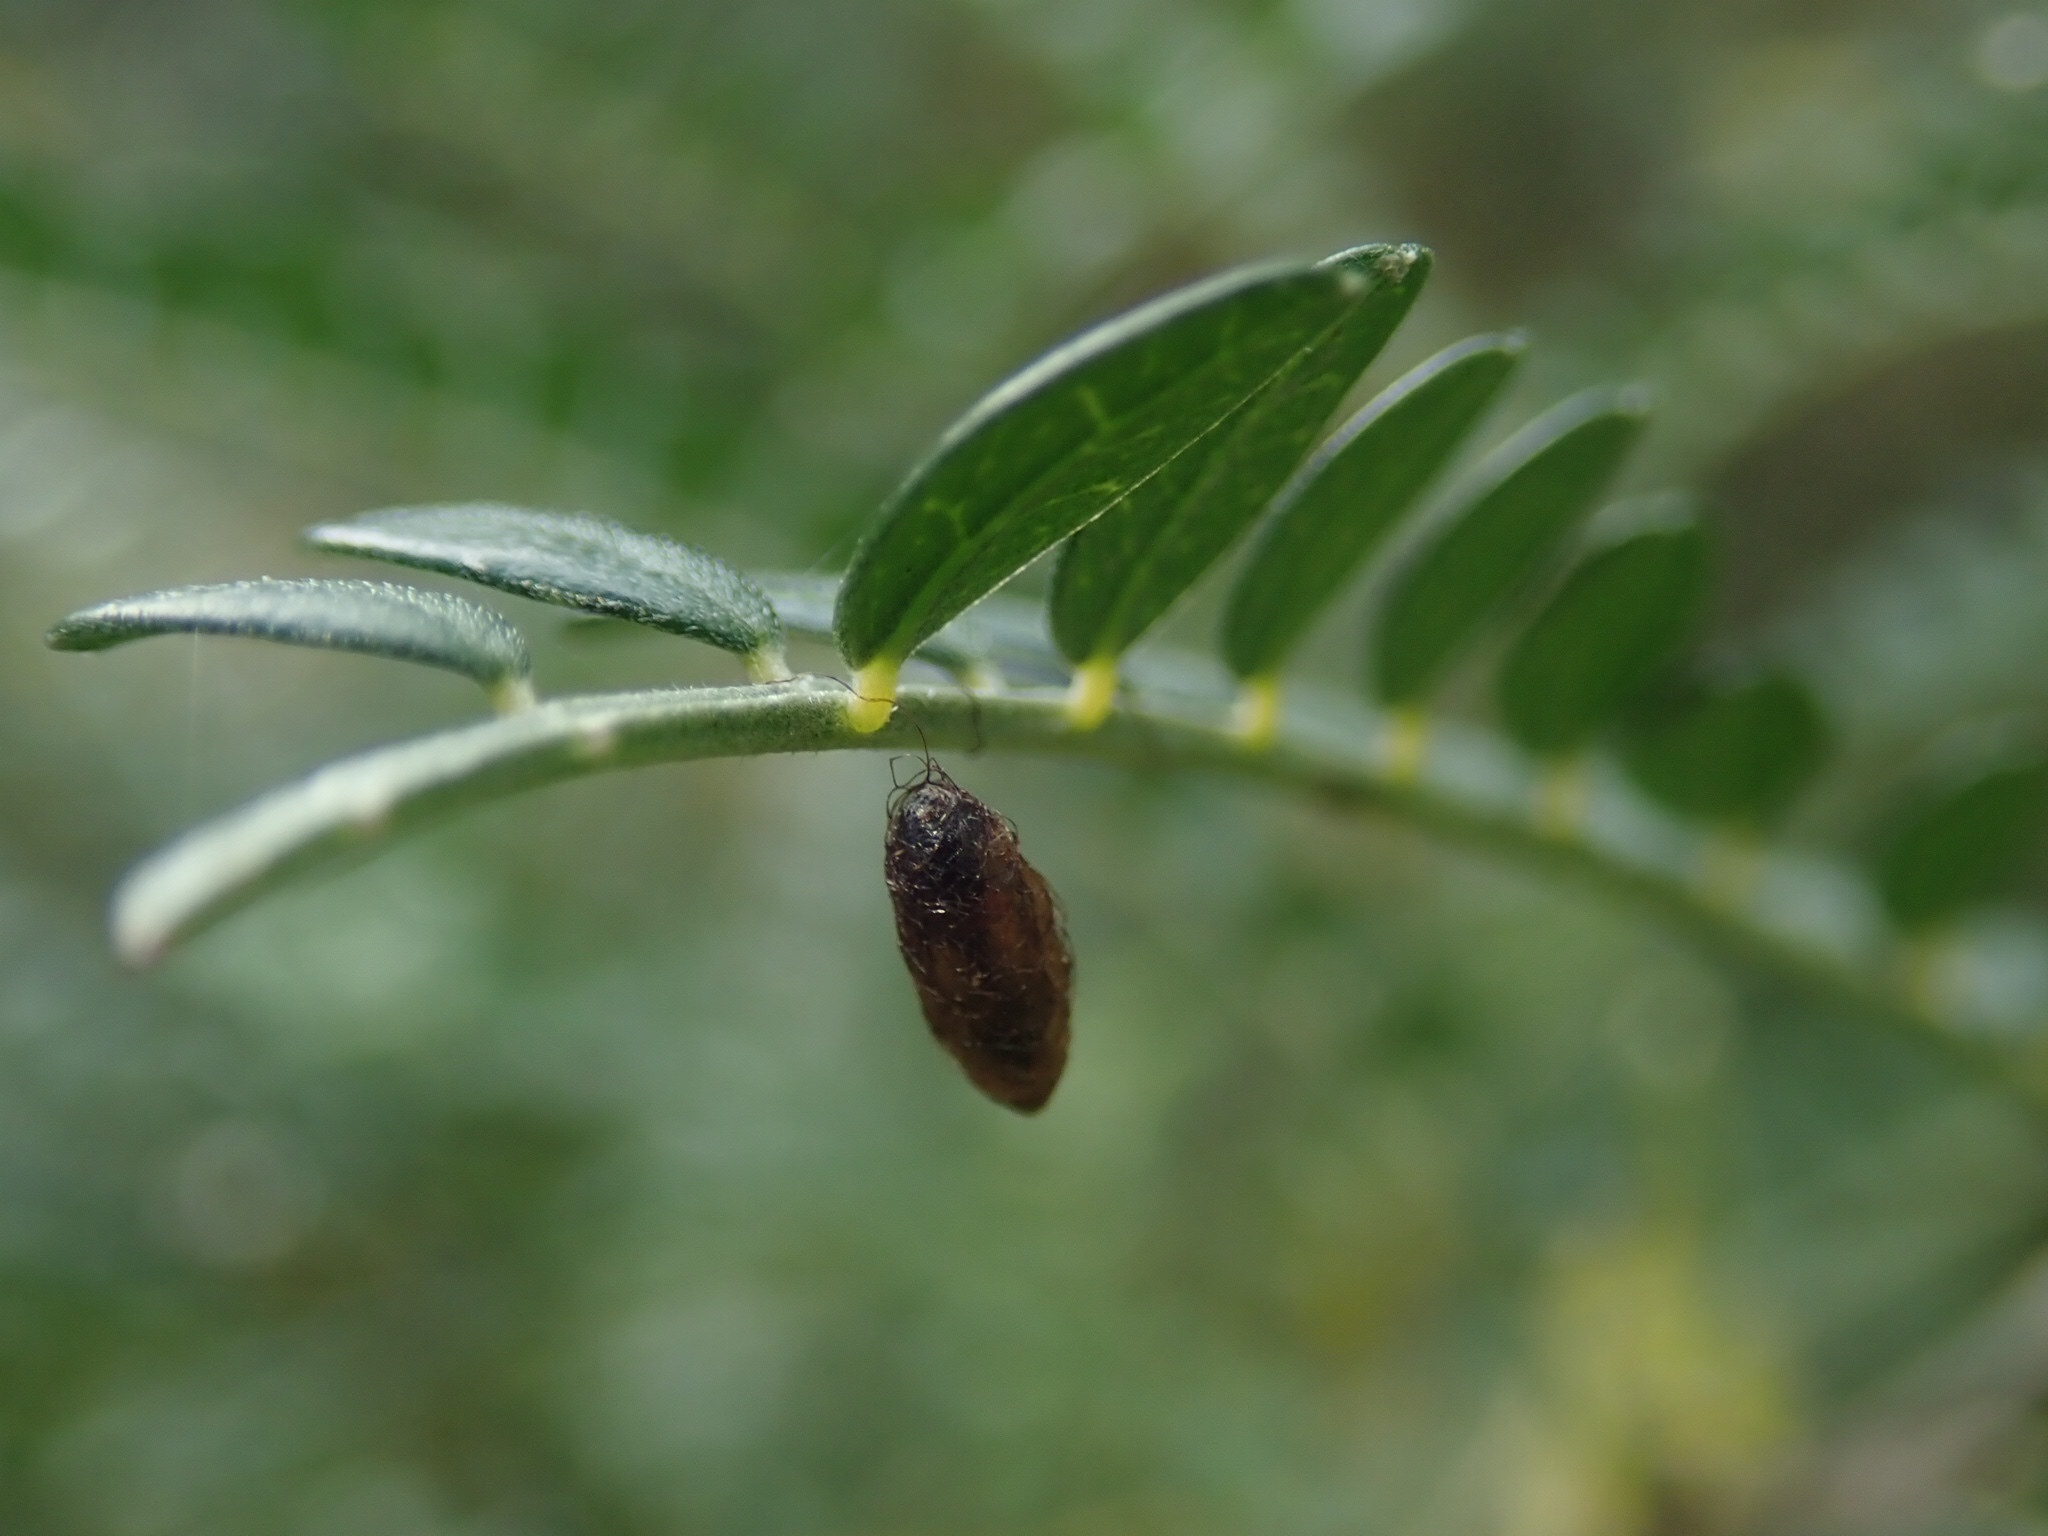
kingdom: Animalia
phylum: Arthropoda
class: Insecta
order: Hymenoptera
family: Braconidae
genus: Meteorus
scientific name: Meteorus pulchricornis
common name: Braconid wasp
